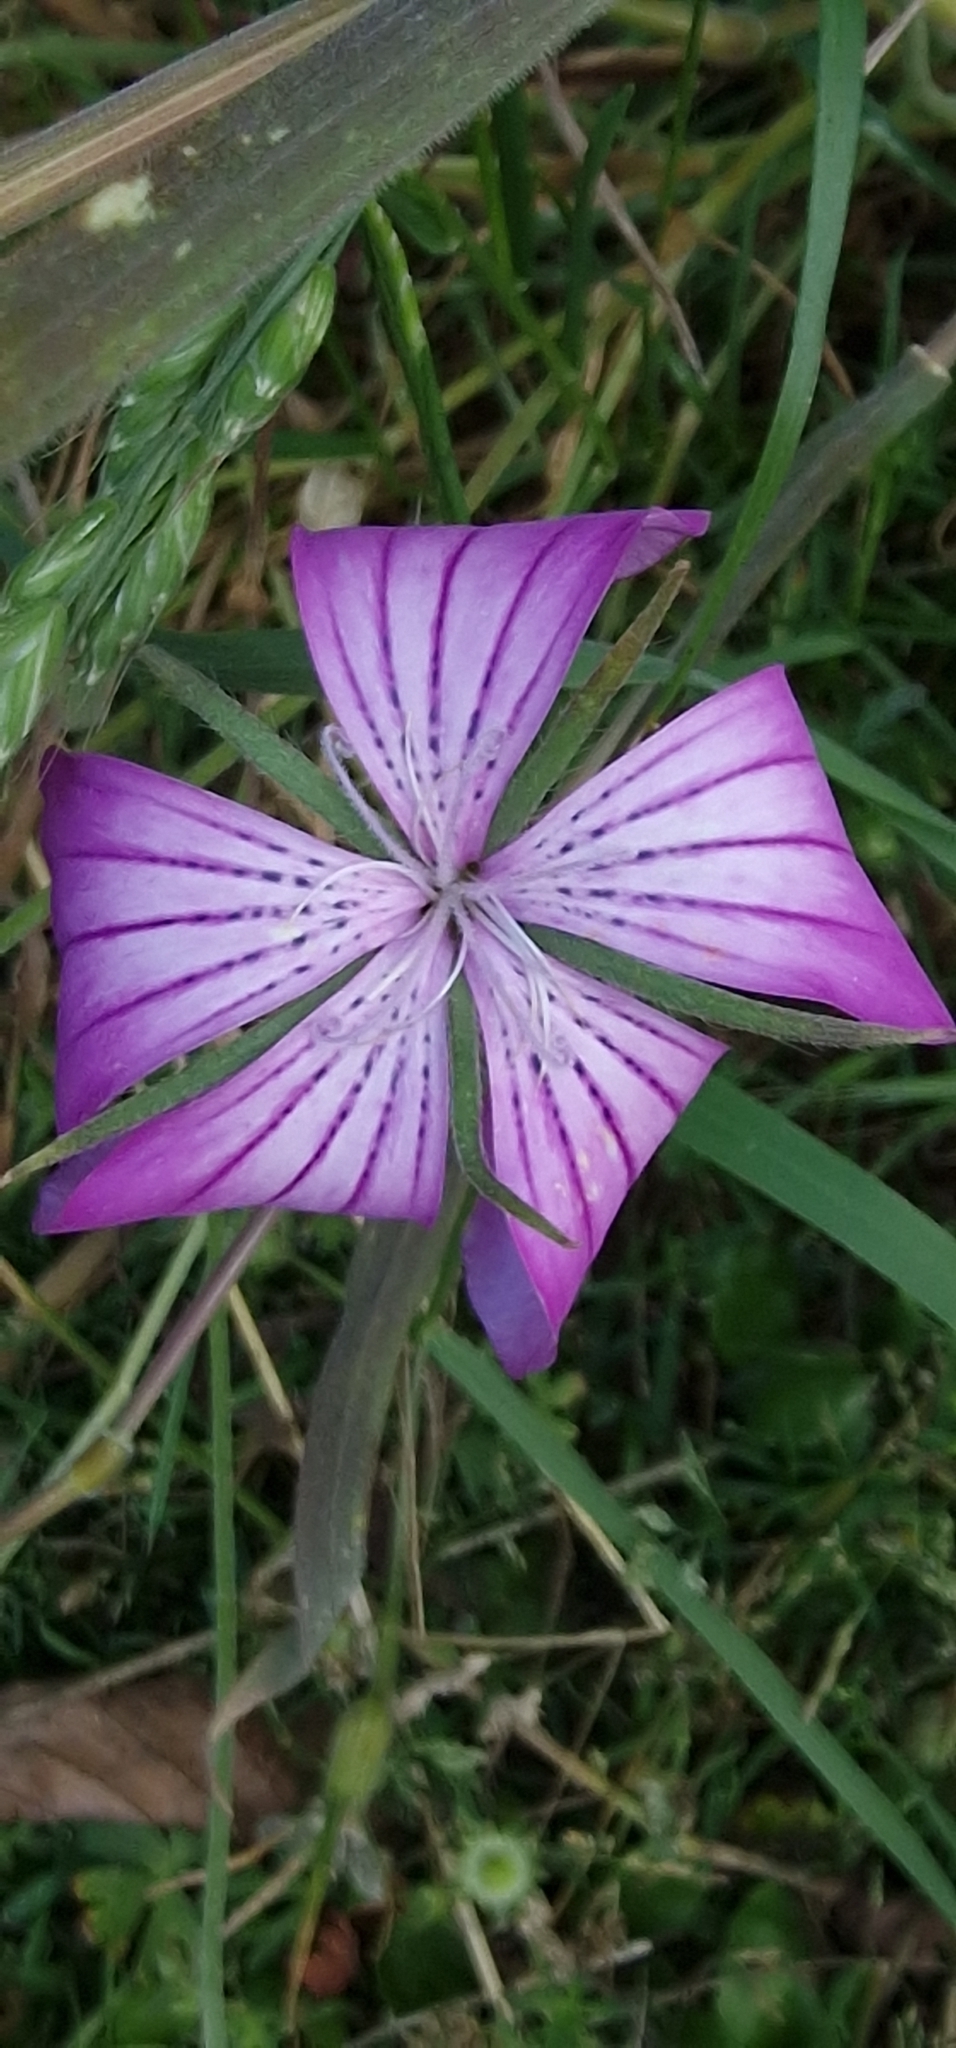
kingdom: Plantae
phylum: Tracheophyta
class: Magnoliopsida
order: Caryophyllales
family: Caryophyllaceae
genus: Agrostemma
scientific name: Agrostemma githago
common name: Common corncockle
